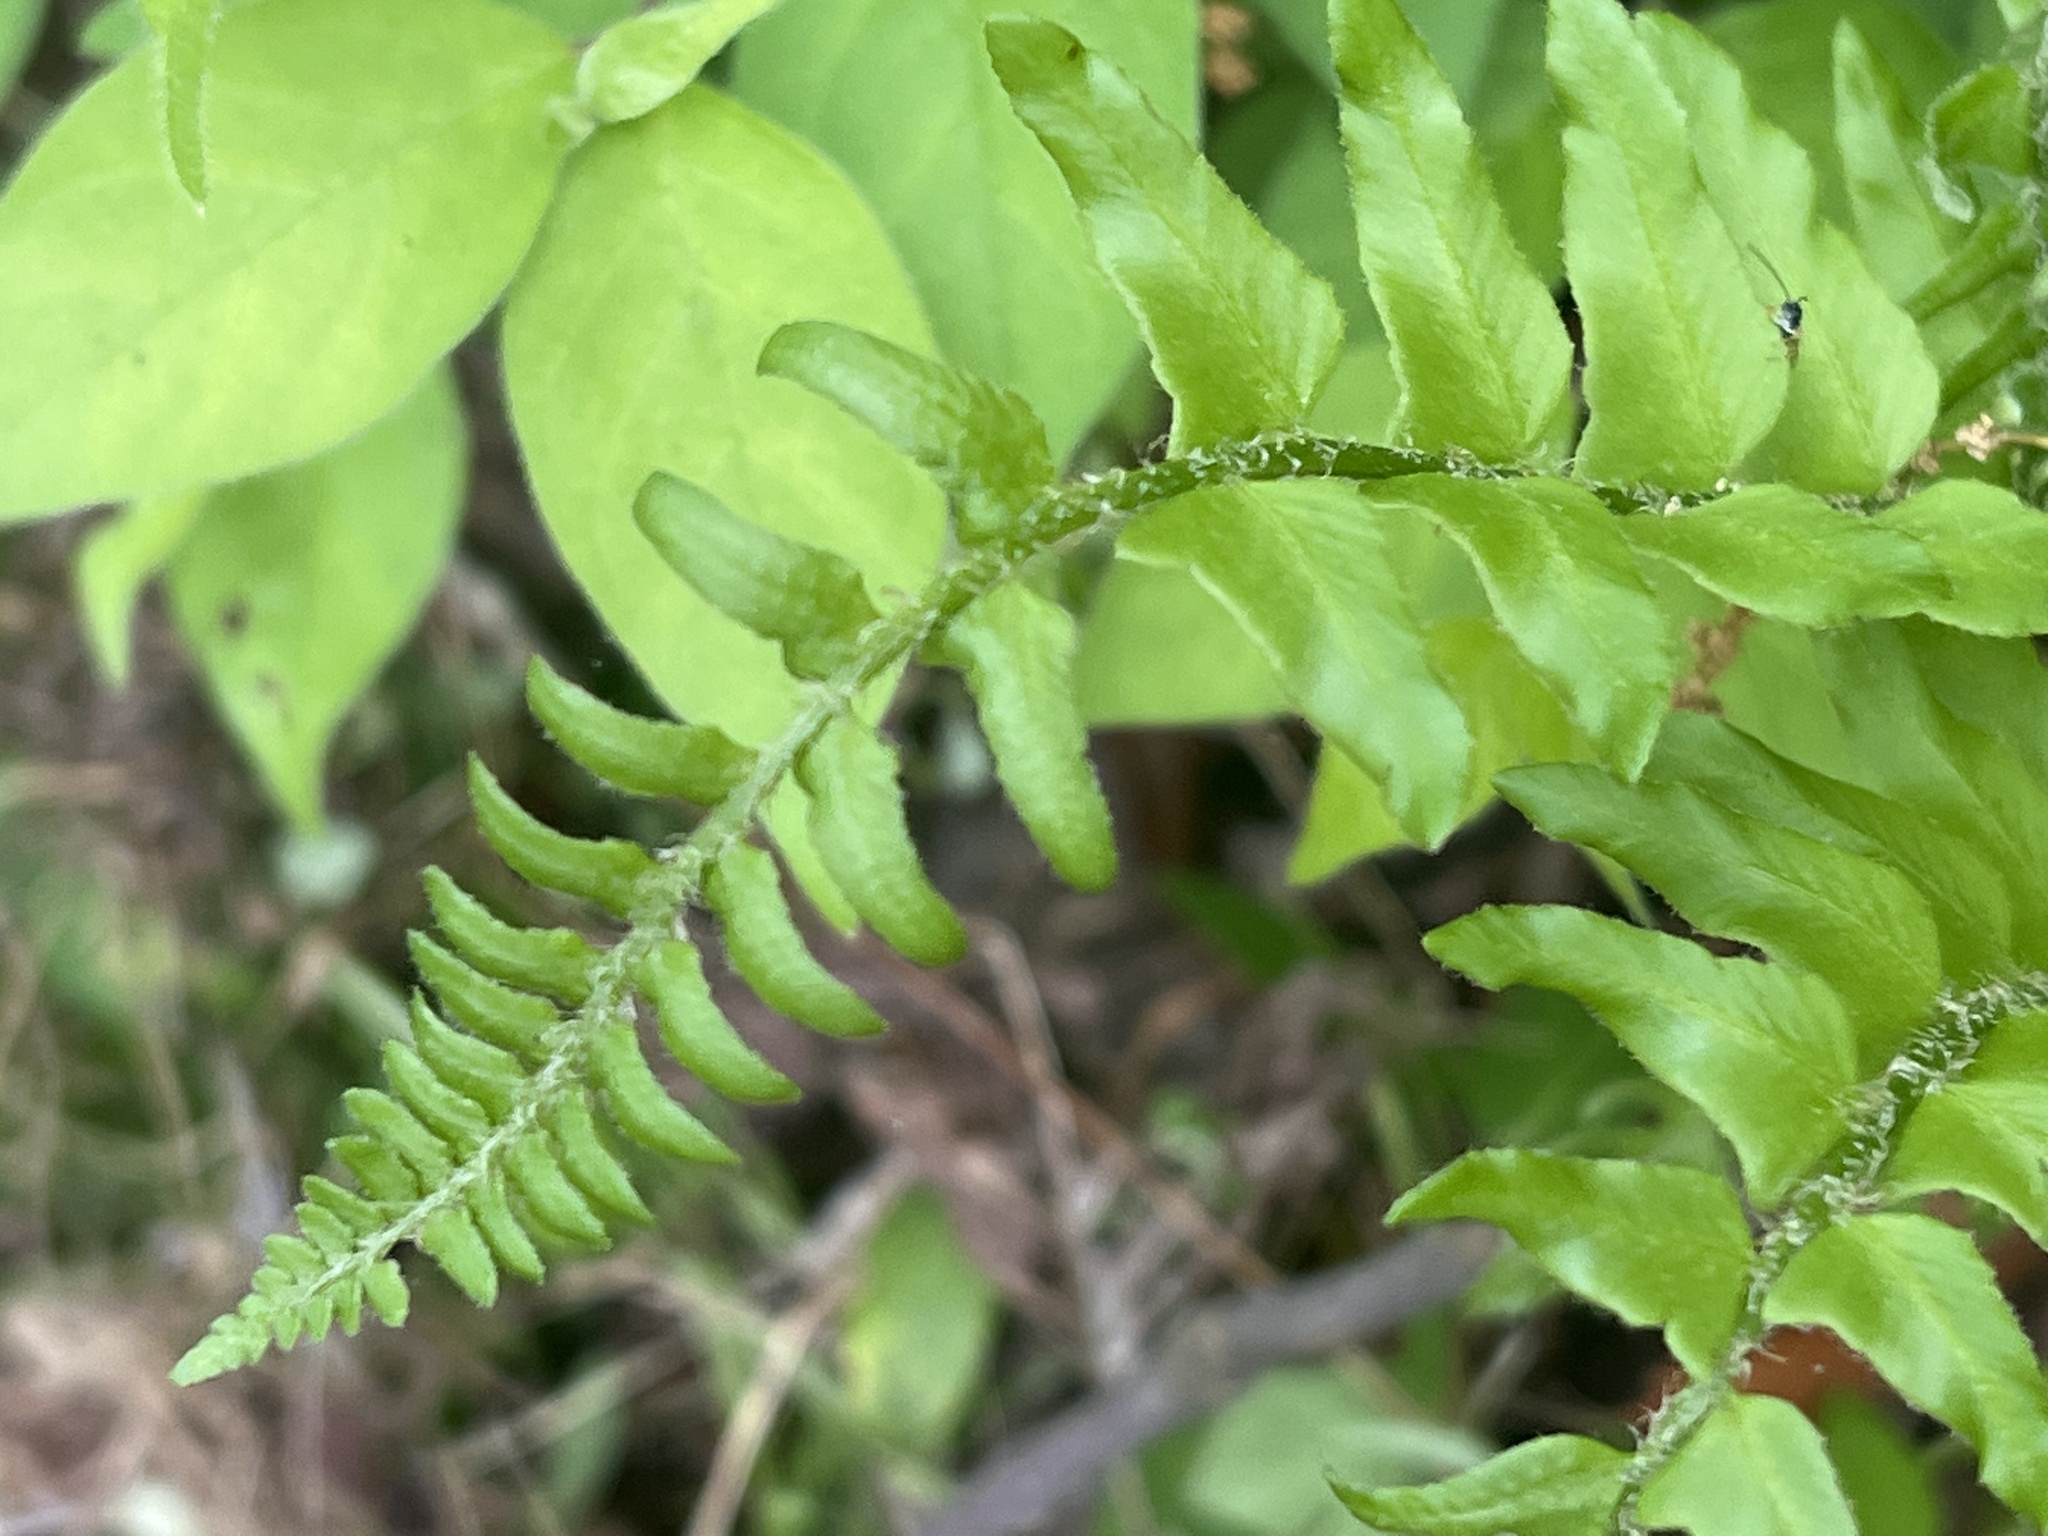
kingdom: Plantae
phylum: Tracheophyta
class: Polypodiopsida
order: Polypodiales
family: Dryopteridaceae
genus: Polystichum
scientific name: Polystichum acrostichoides
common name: Christmas fern
